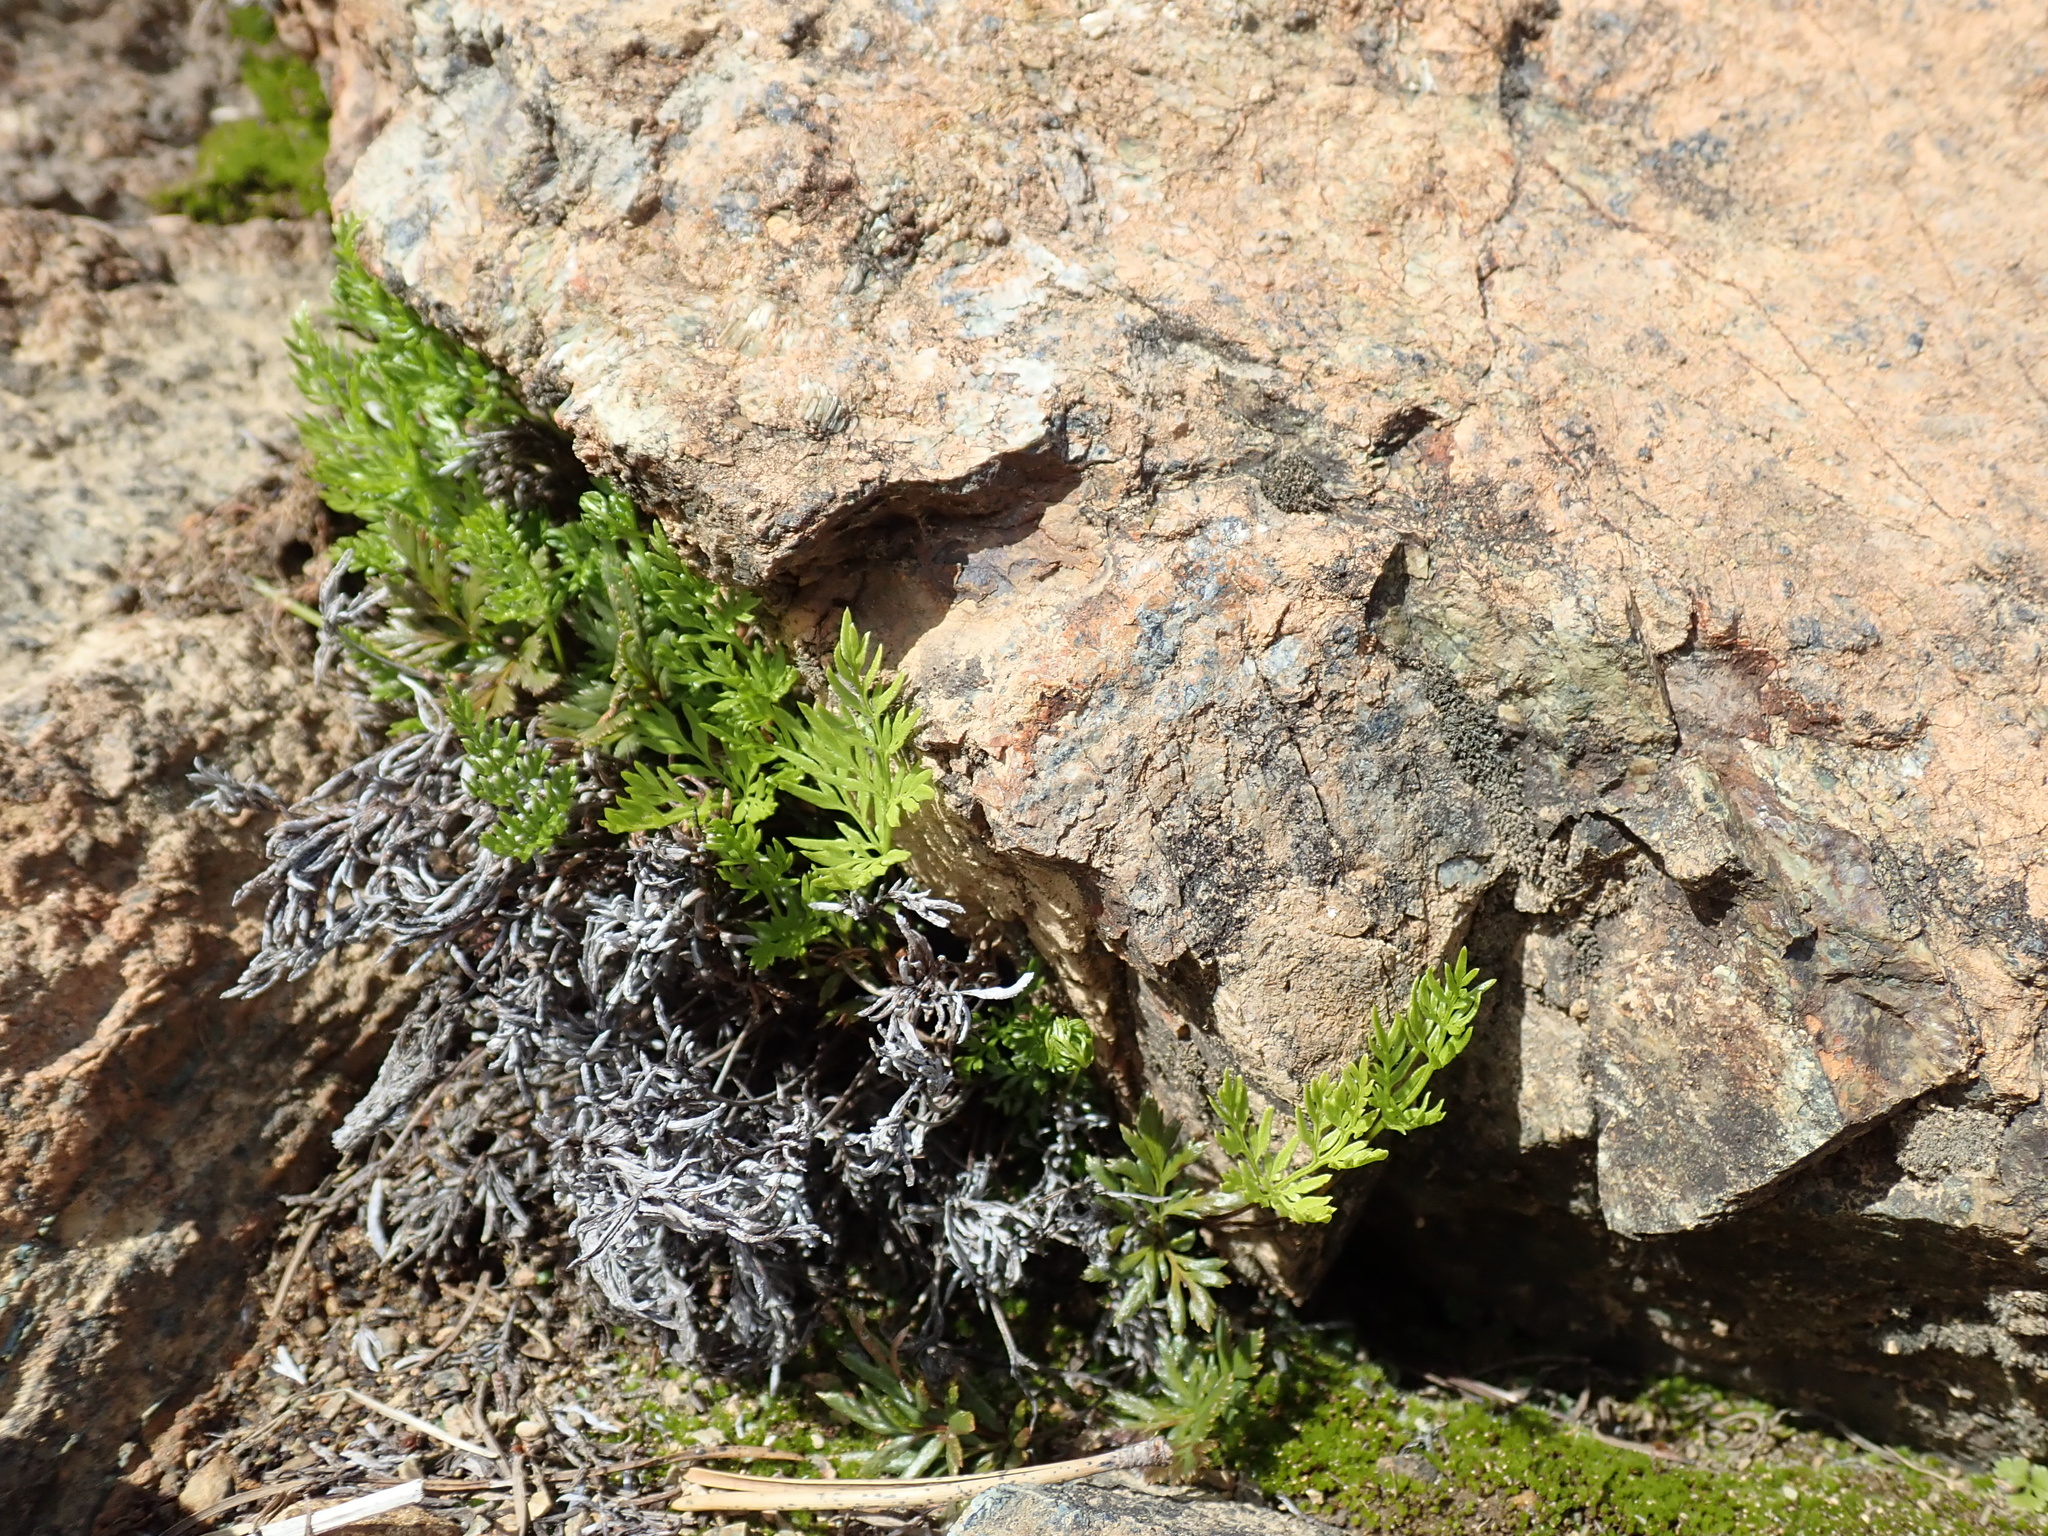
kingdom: Plantae
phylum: Tracheophyta
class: Polypodiopsida
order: Polypodiales
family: Pteridaceae
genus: Aspidotis
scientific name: Aspidotis densa
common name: Indian's dream
